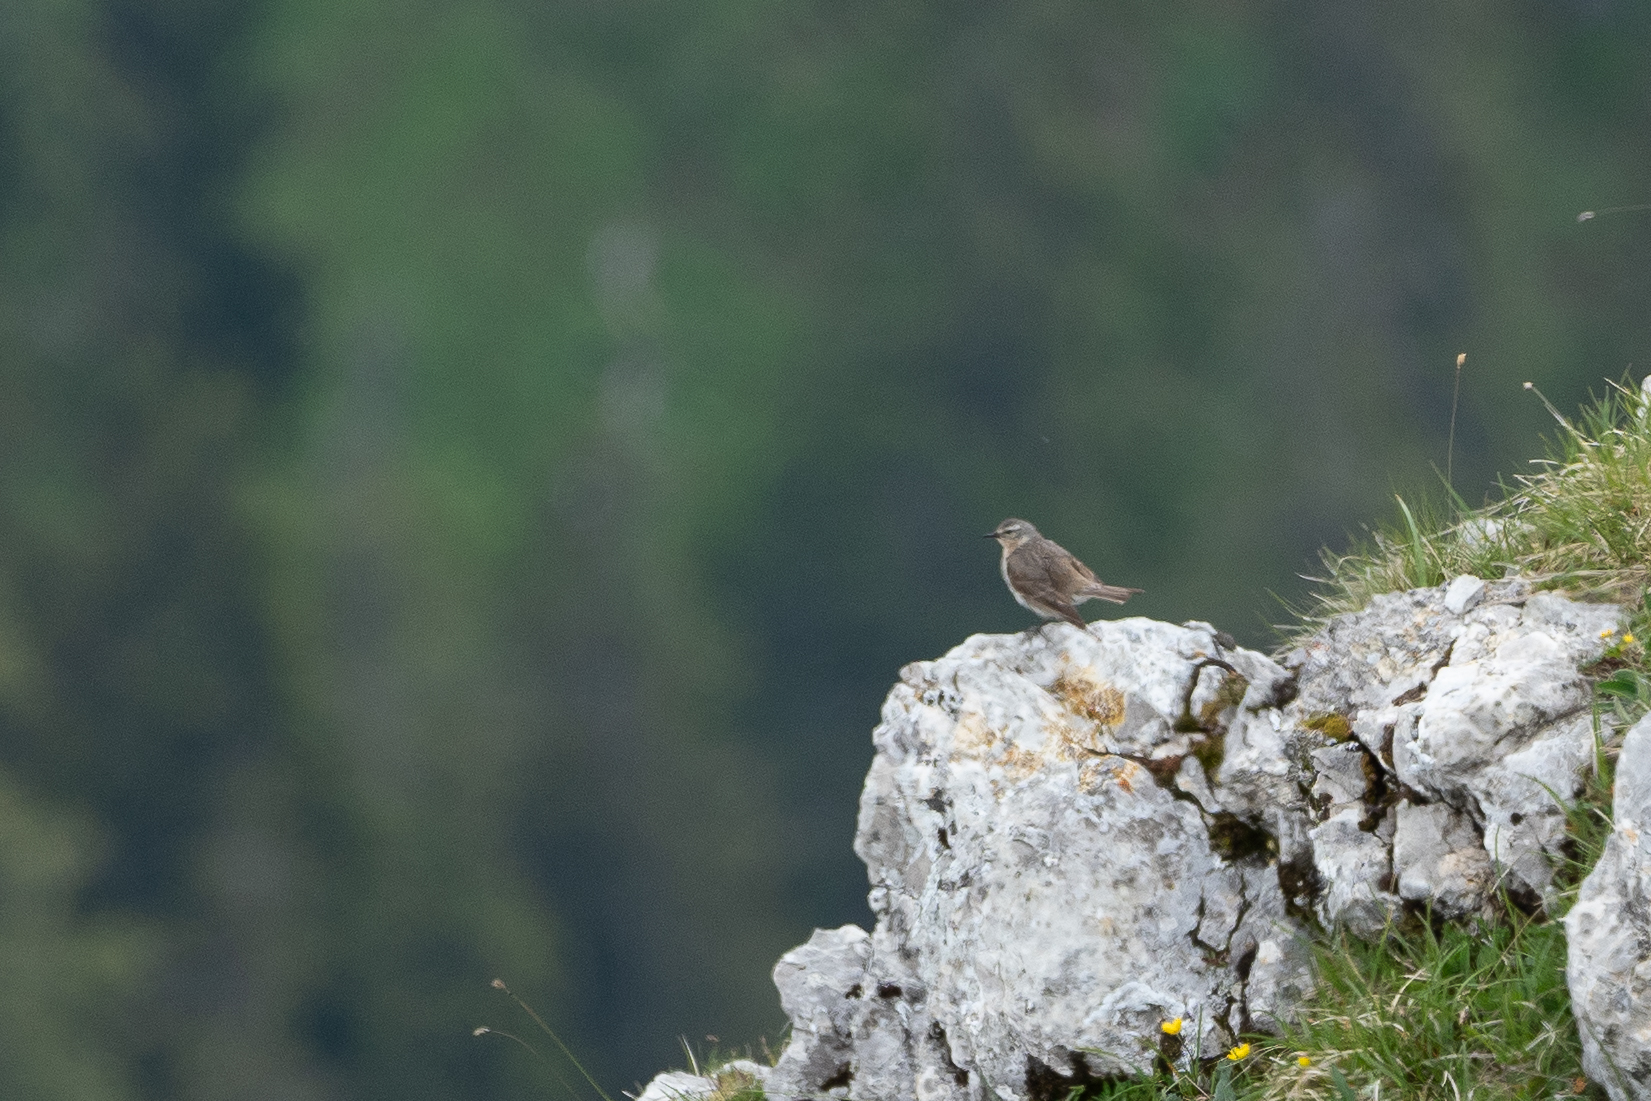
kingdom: Animalia
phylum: Chordata
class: Aves
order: Passeriformes
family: Motacillidae
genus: Anthus
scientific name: Anthus spinoletta
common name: Water pipit
